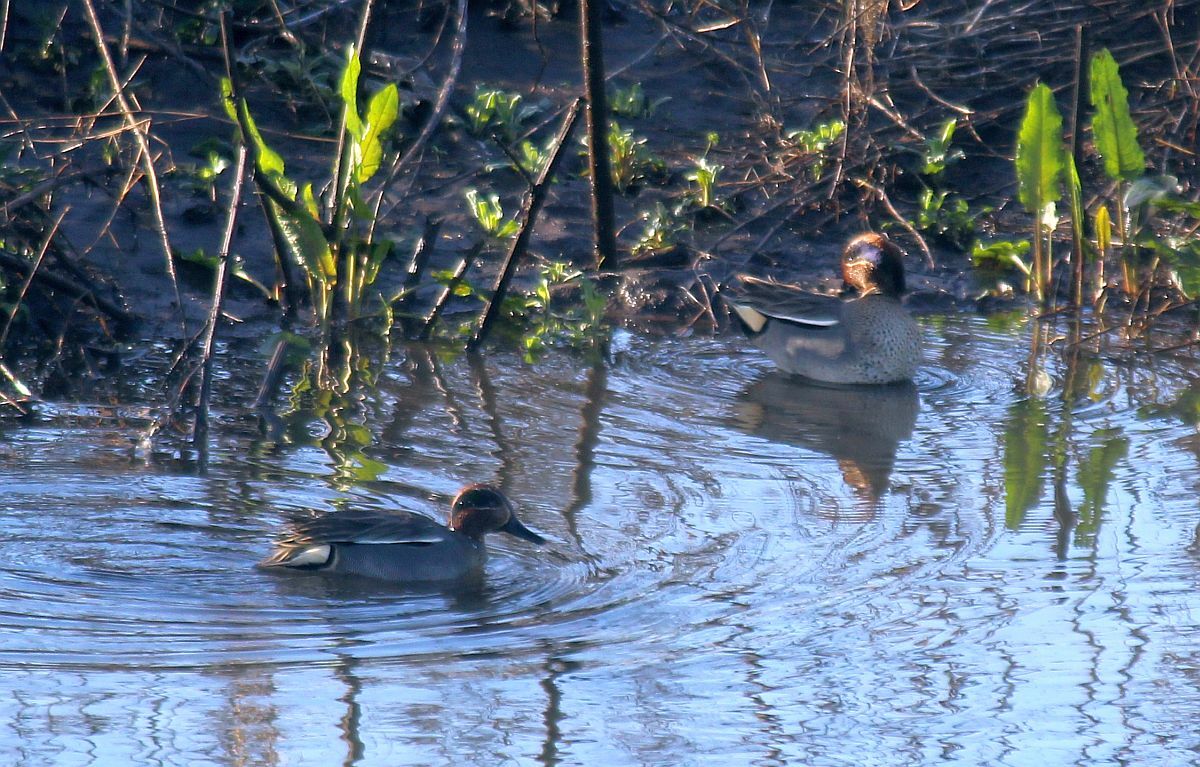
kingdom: Animalia
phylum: Chordata
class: Aves
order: Anseriformes
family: Anatidae
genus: Anas
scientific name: Anas crecca
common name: Eurasian teal
